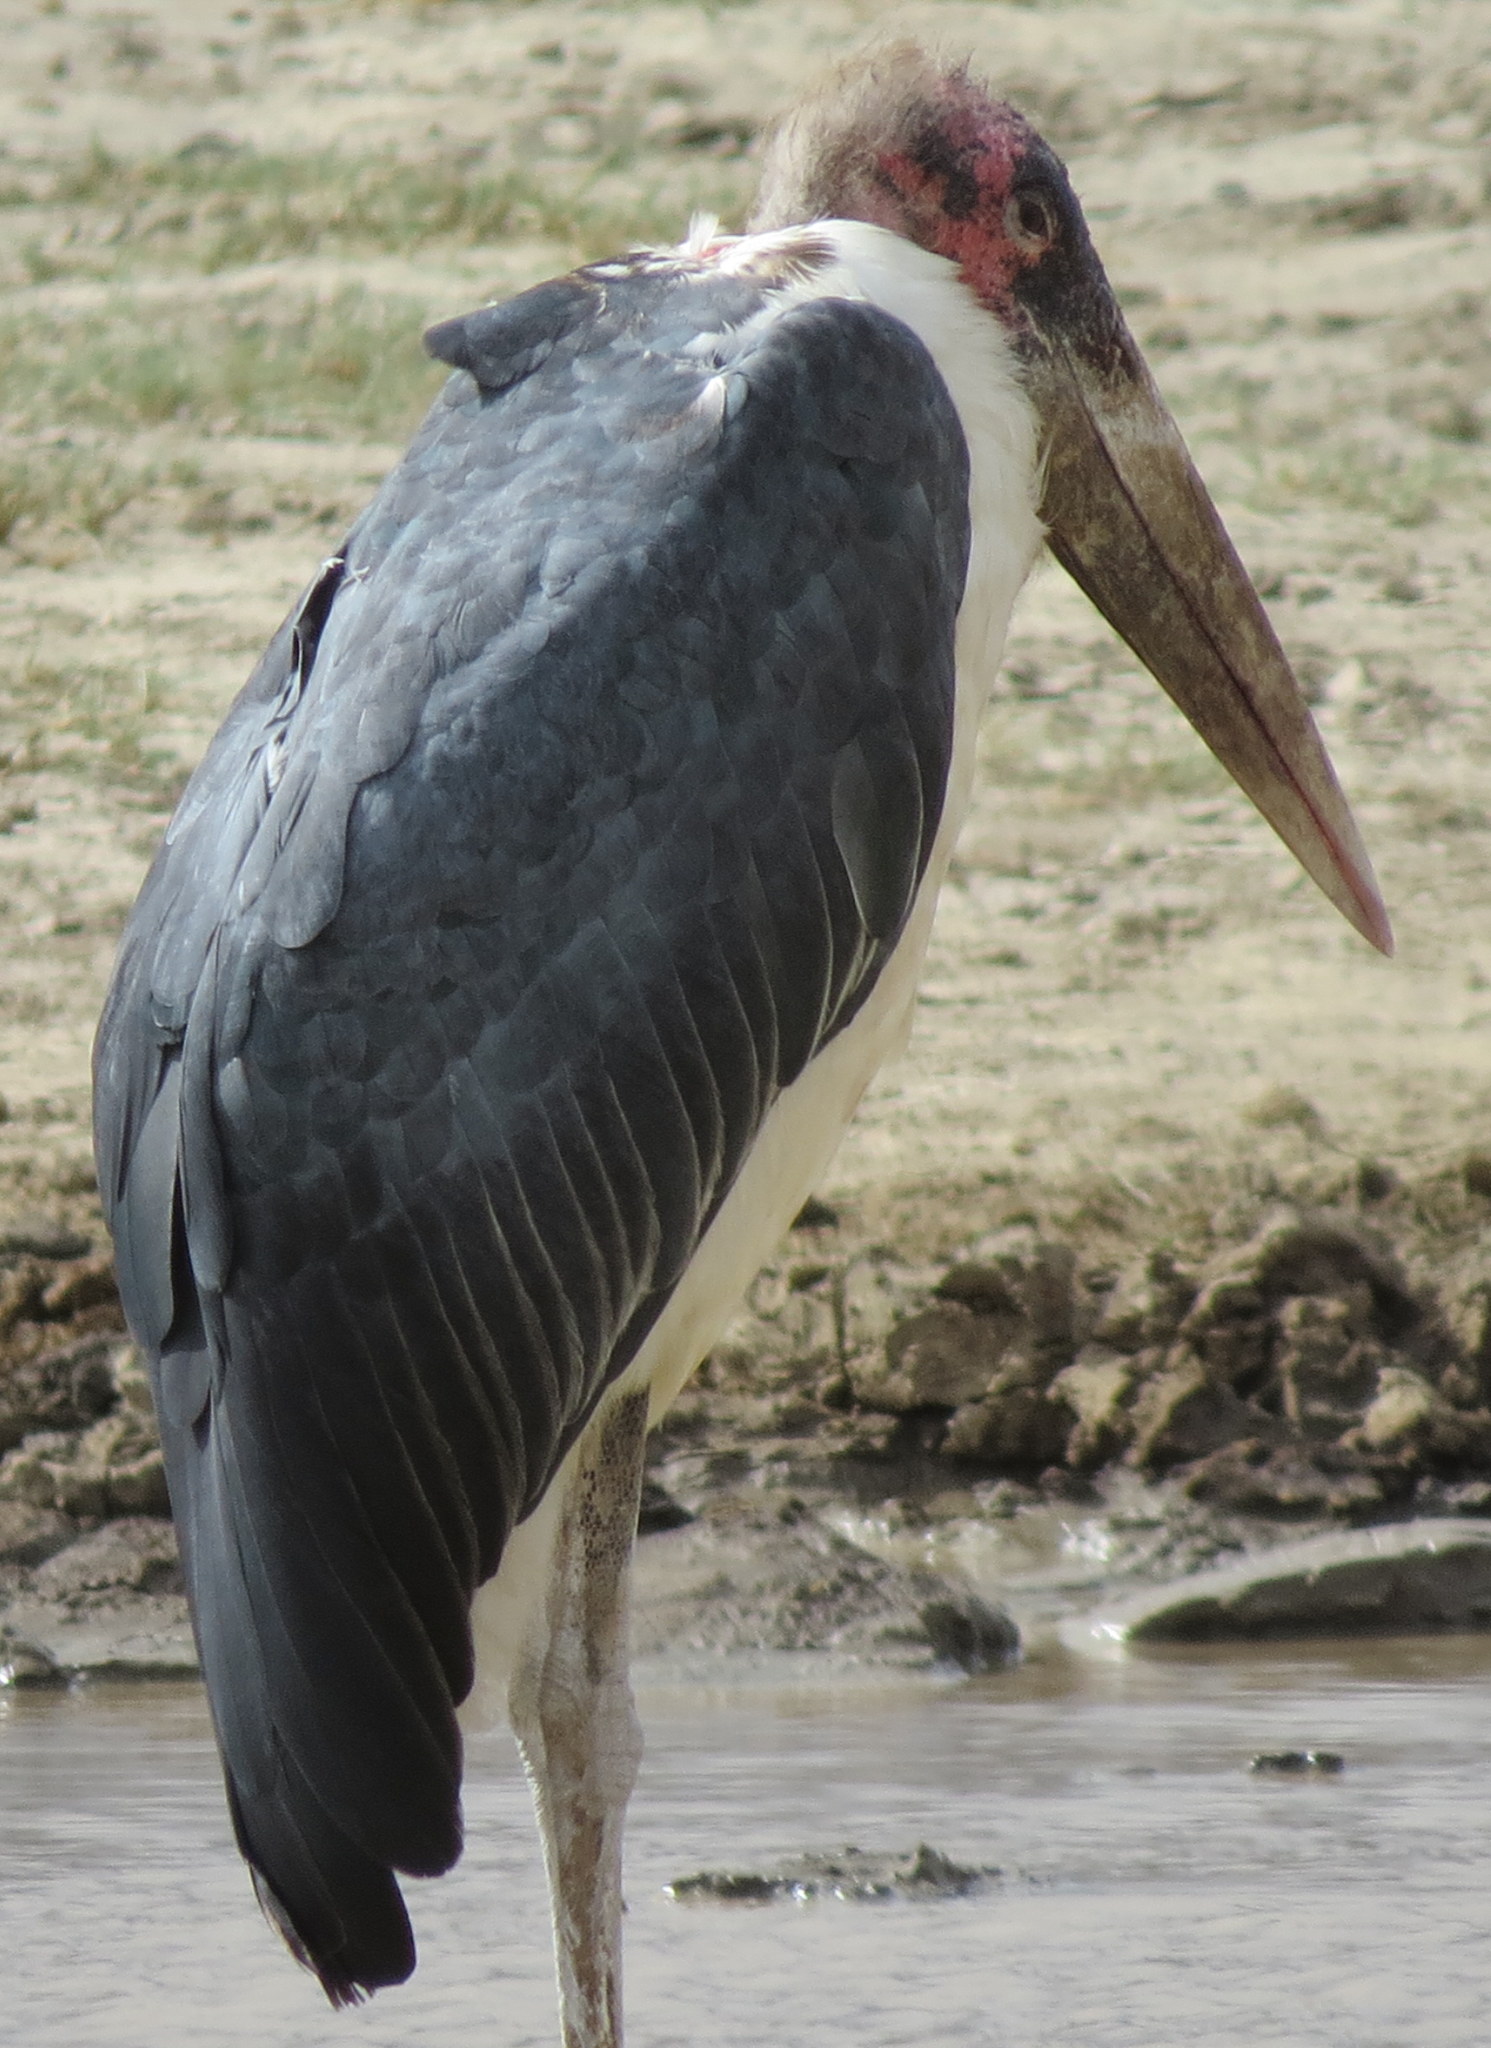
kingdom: Animalia
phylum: Chordata
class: Aves
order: Ciconiiformes
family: Ciconiidae
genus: Leptoptilos
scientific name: Leptoptilos crumenifer
